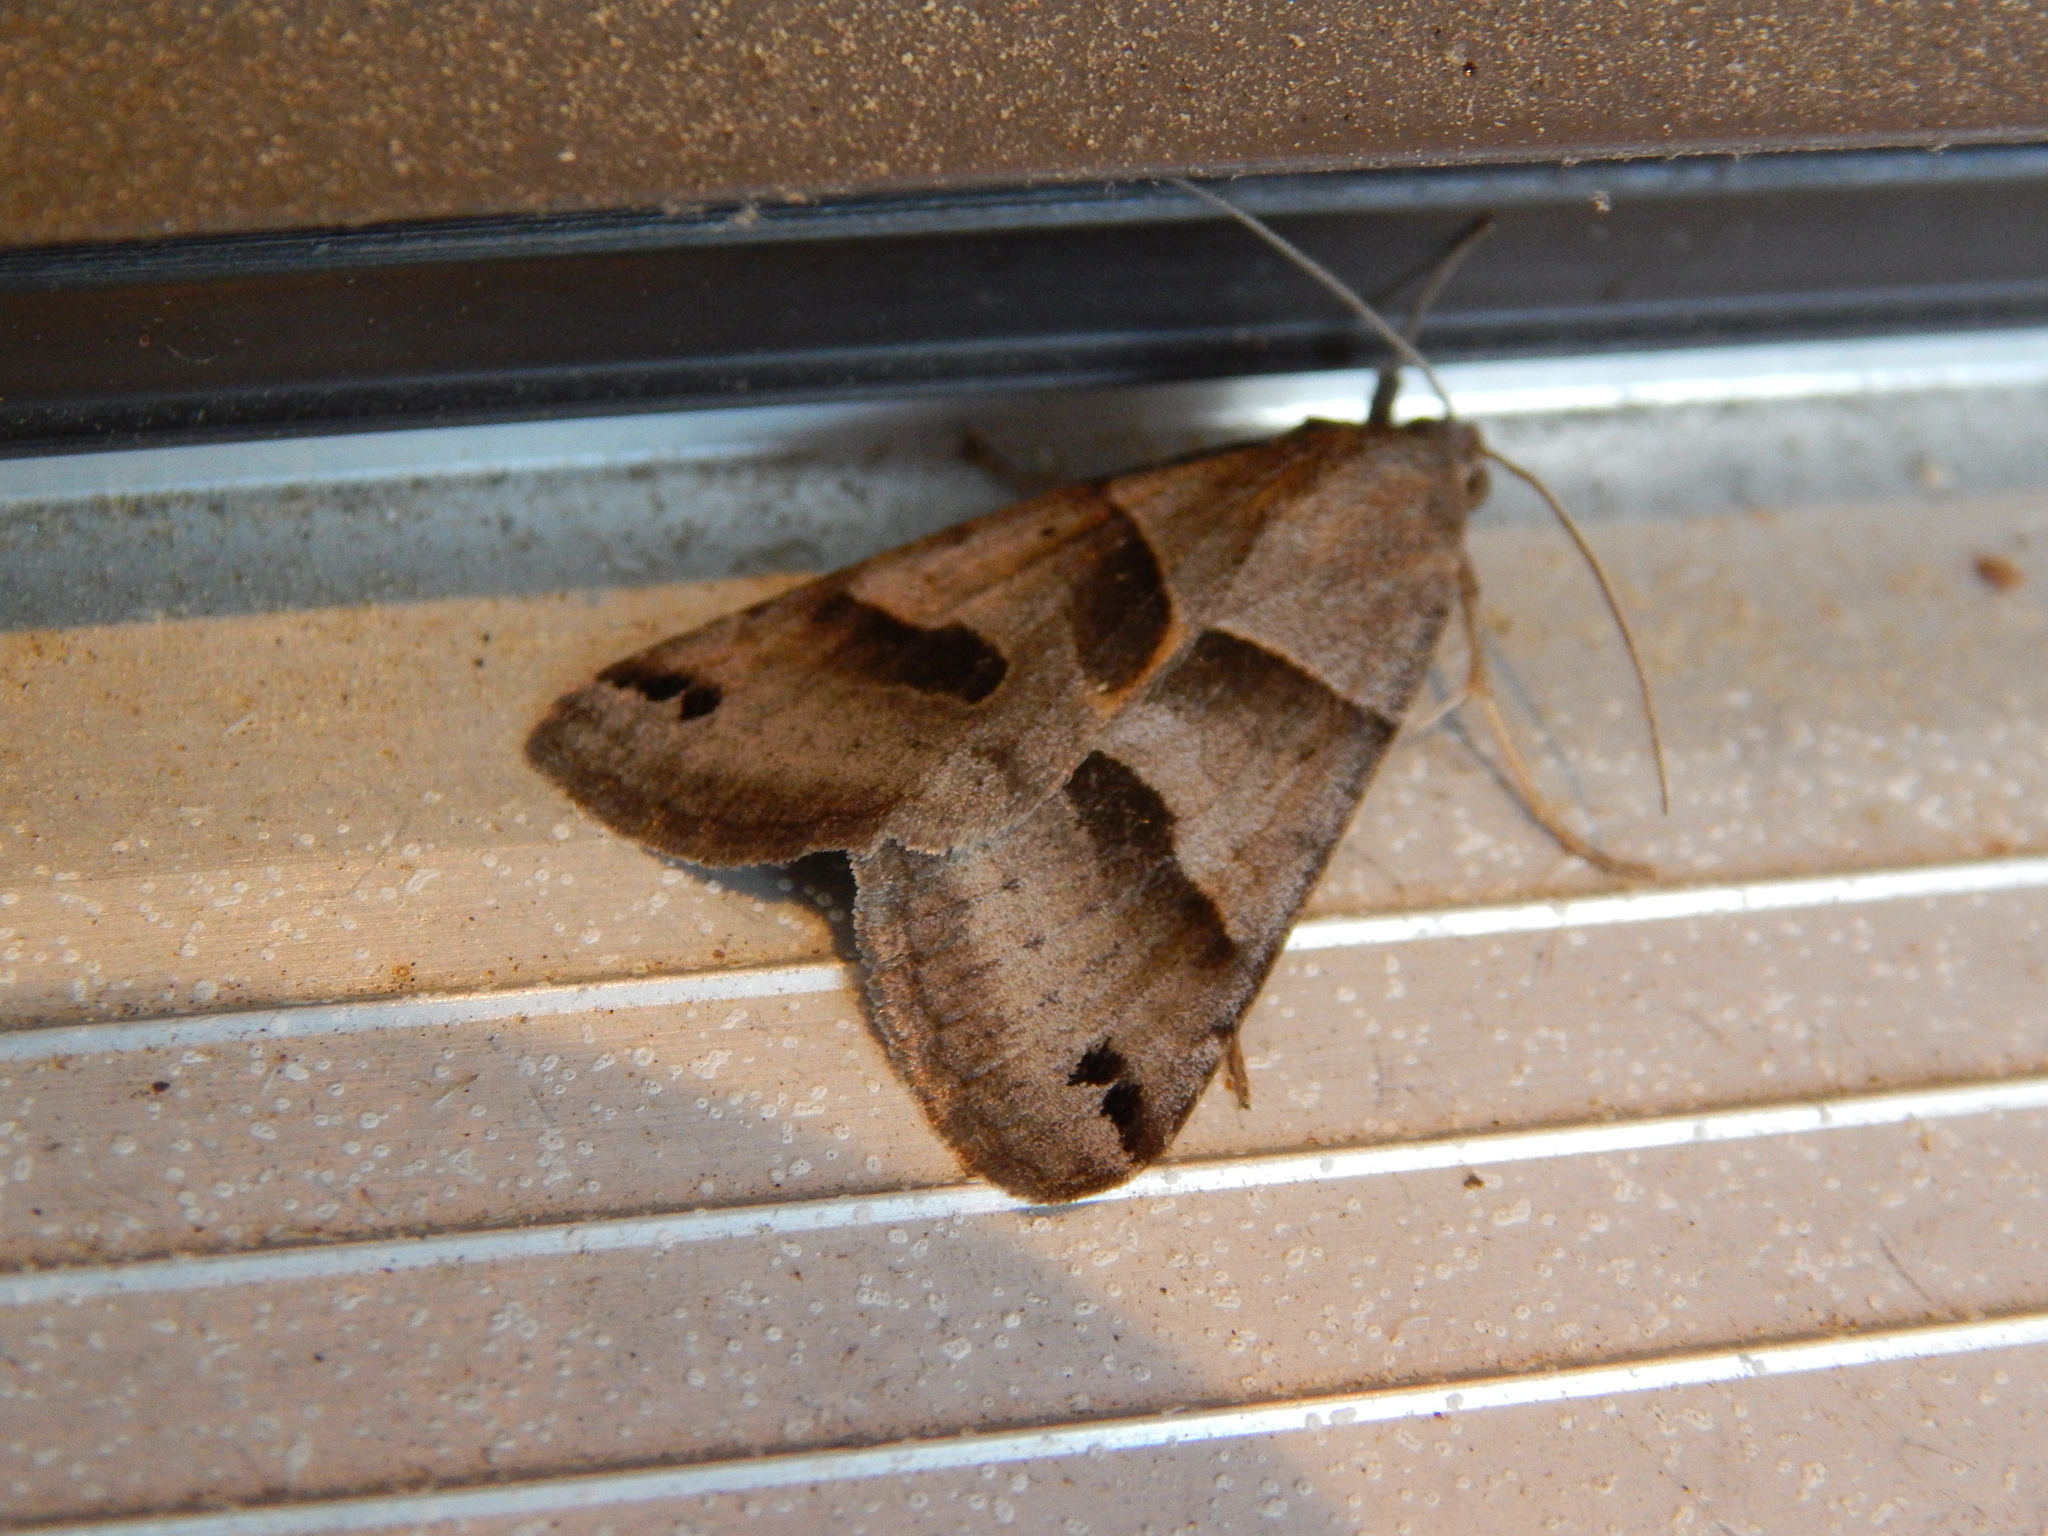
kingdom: Animalia
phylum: Arthropoda
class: Insecta
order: Lepidoptera
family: Erebidae
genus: Caenurgina
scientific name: Caenurgina erechtea
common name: Forage looper moth
